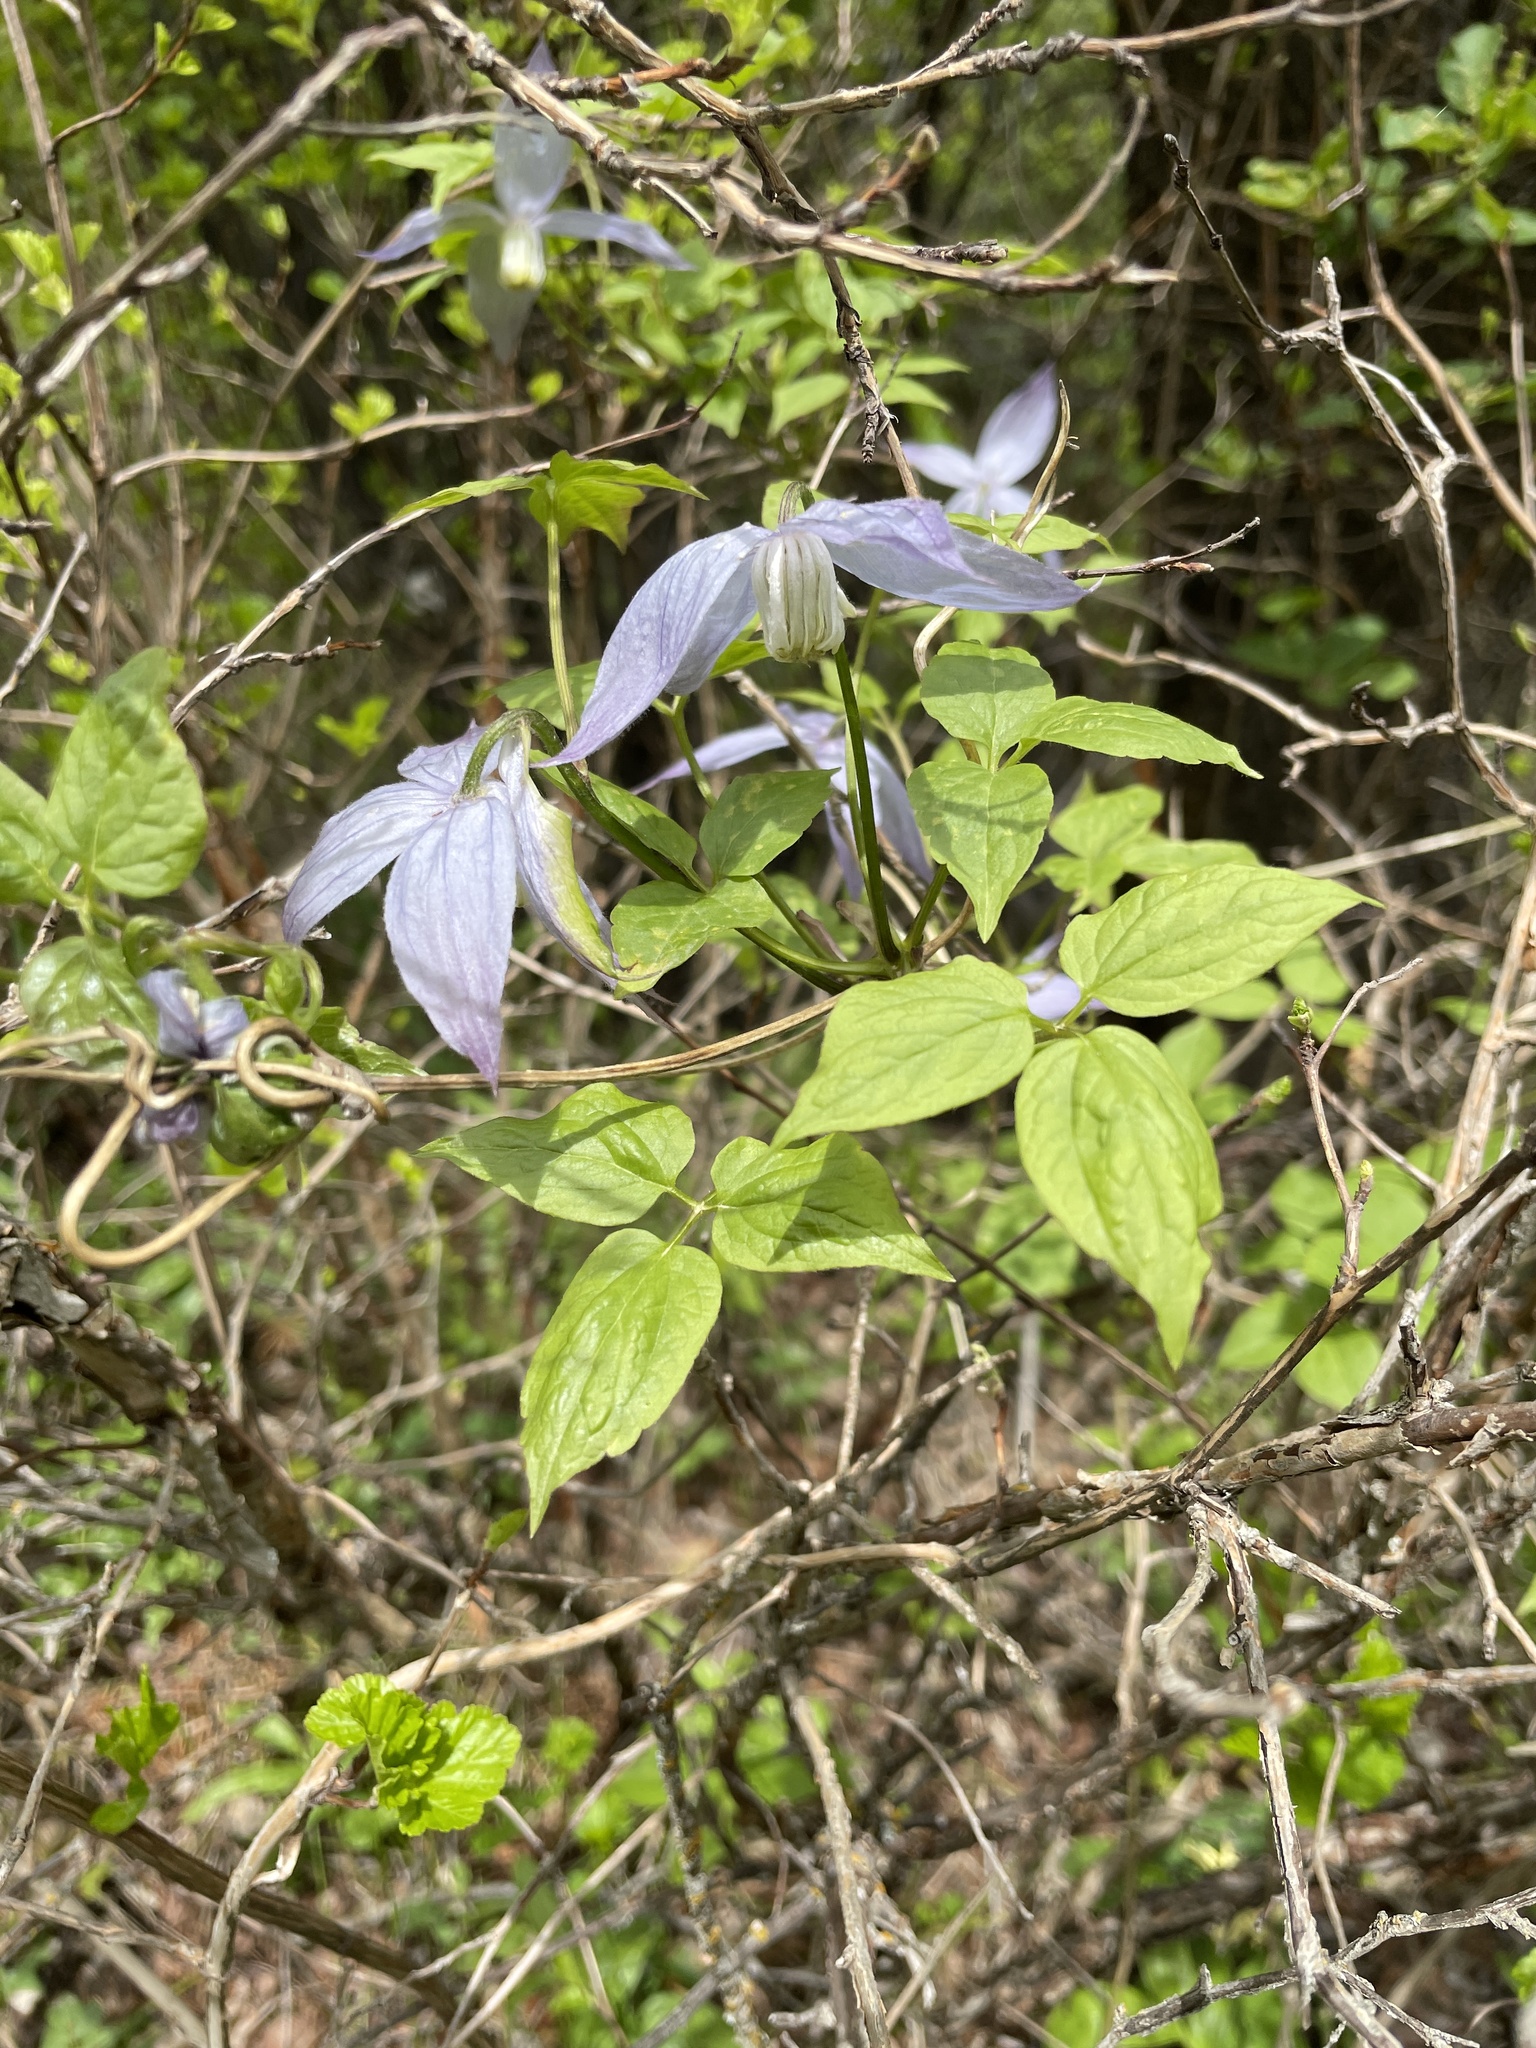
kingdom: Plantae
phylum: Tracheophyta
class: Magnoliopsida
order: Ranunculales
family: Ranunculaceae
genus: Clematis
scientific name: Clematis occidentalis
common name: Purple clematis
